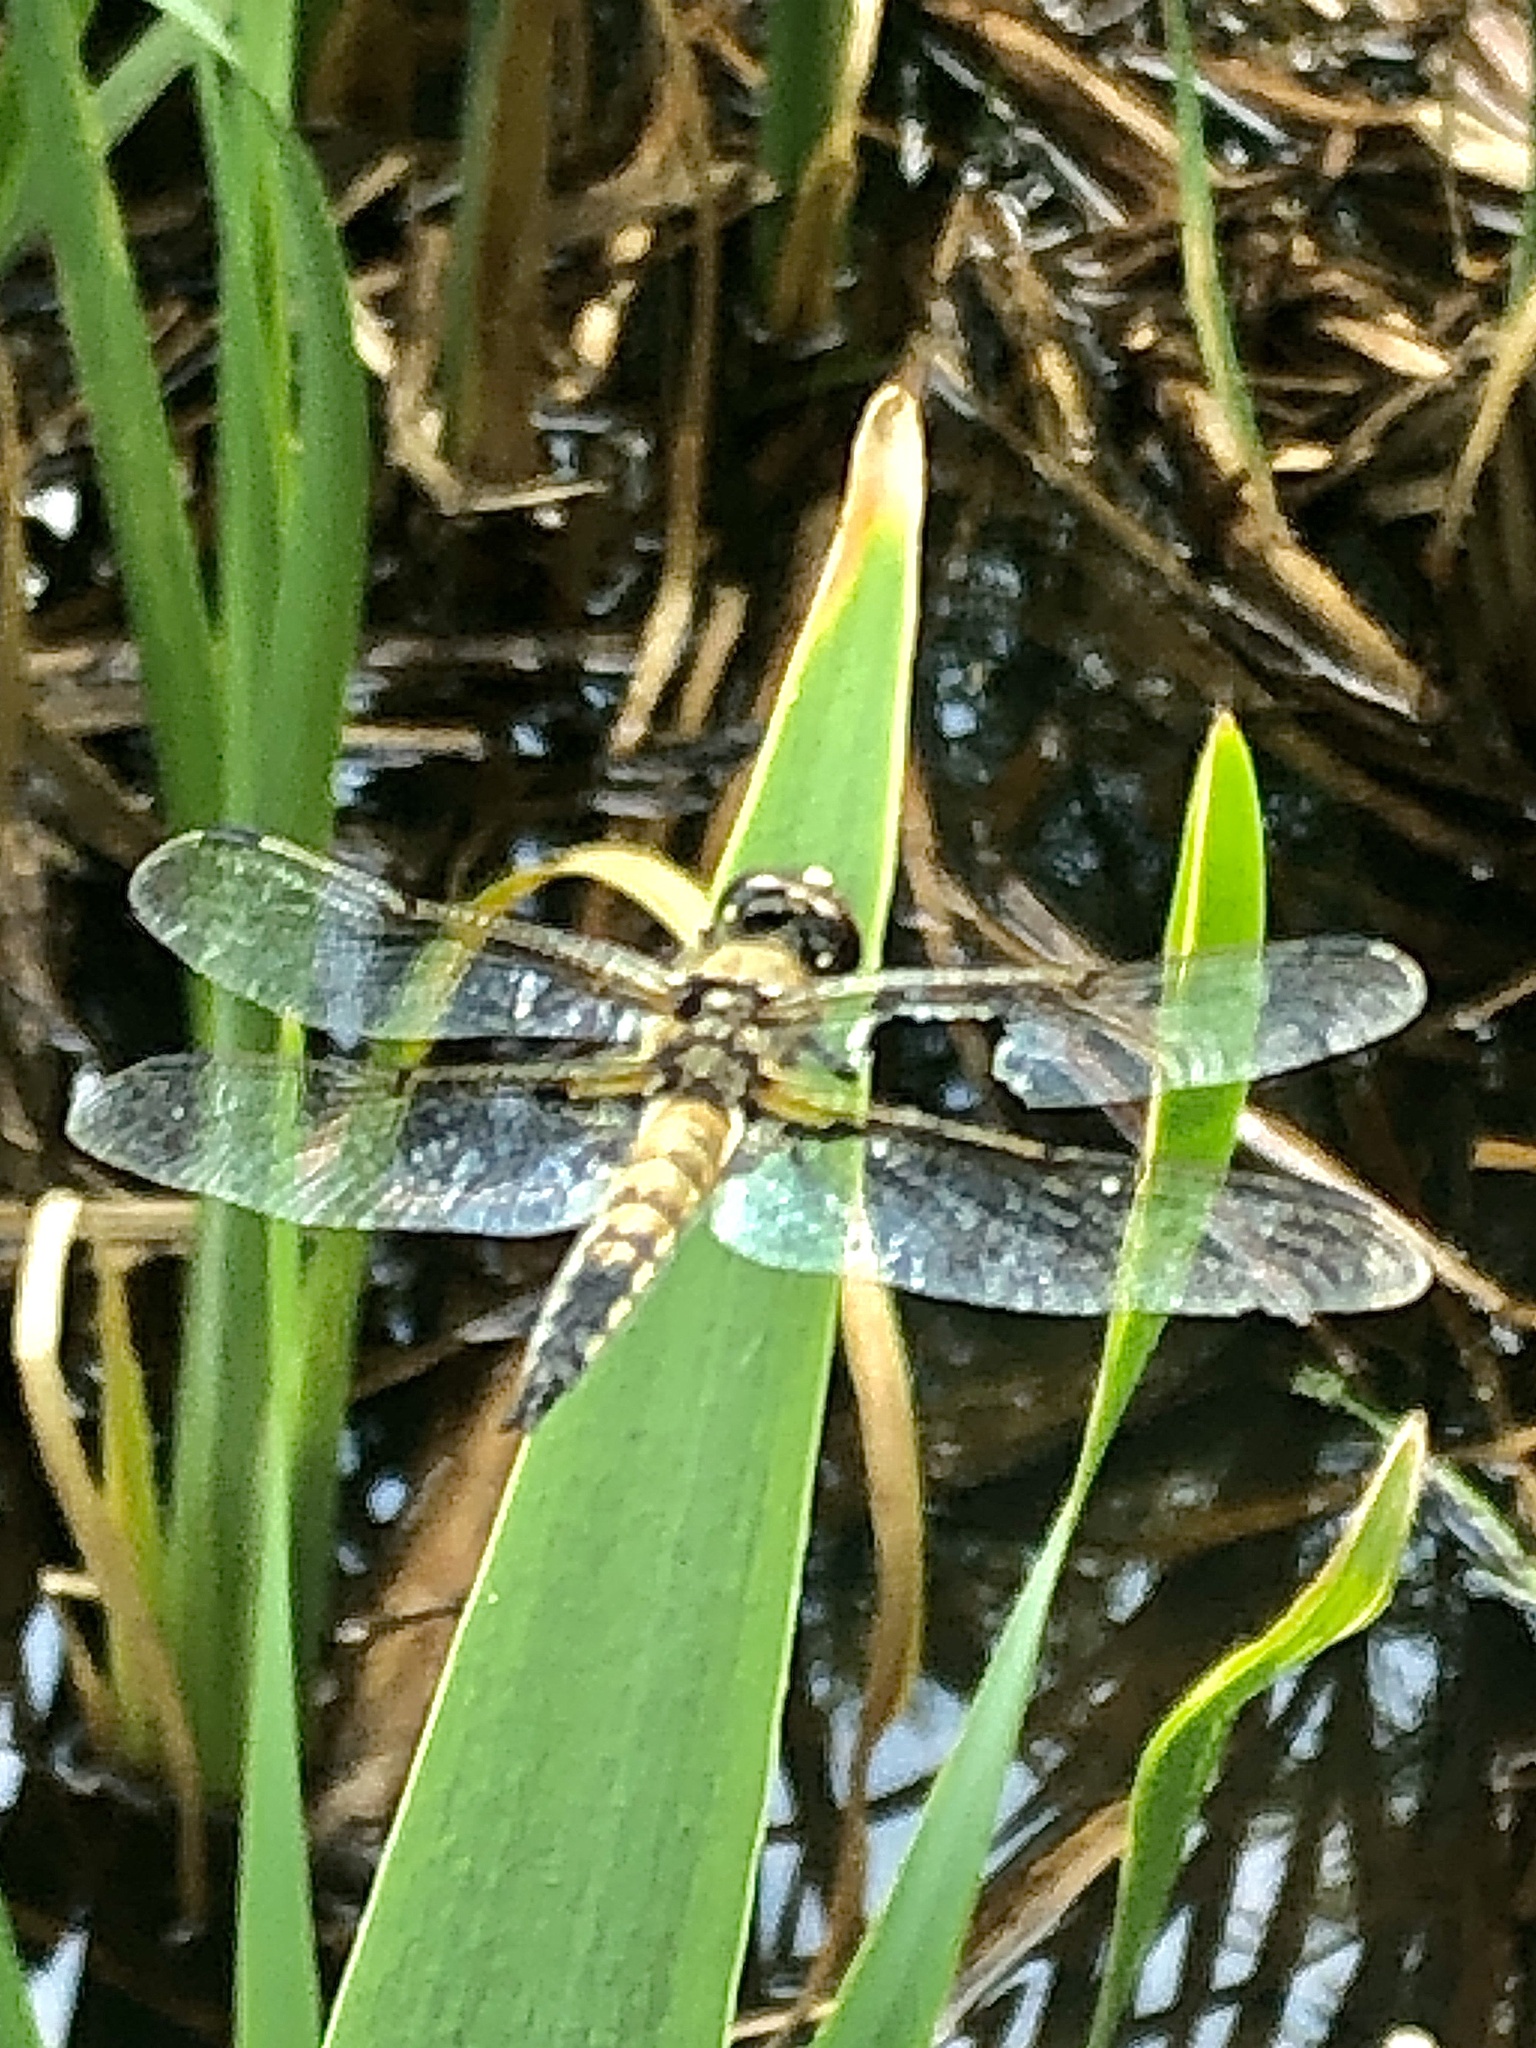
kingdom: Animalia
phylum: Arthropoda
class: Insecta
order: Odonata
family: Libellulidae
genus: Libellula
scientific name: Libellula quadrimaculata
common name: Four-spotted chaser
